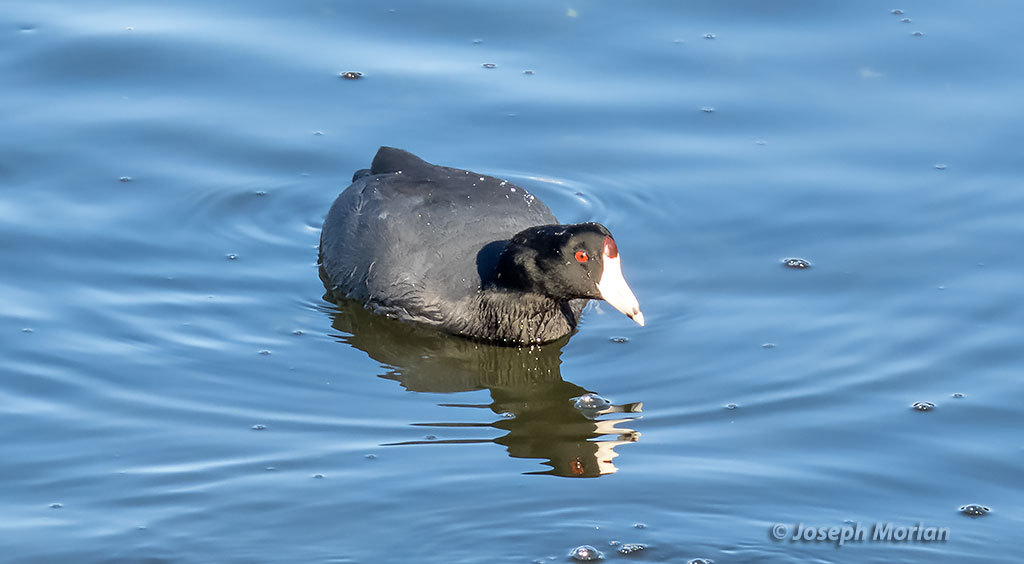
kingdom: Animalia
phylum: Chordata
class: Aves
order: Gruiformes
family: Rallidae
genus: Fulica
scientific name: Fulica americana
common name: American coot
